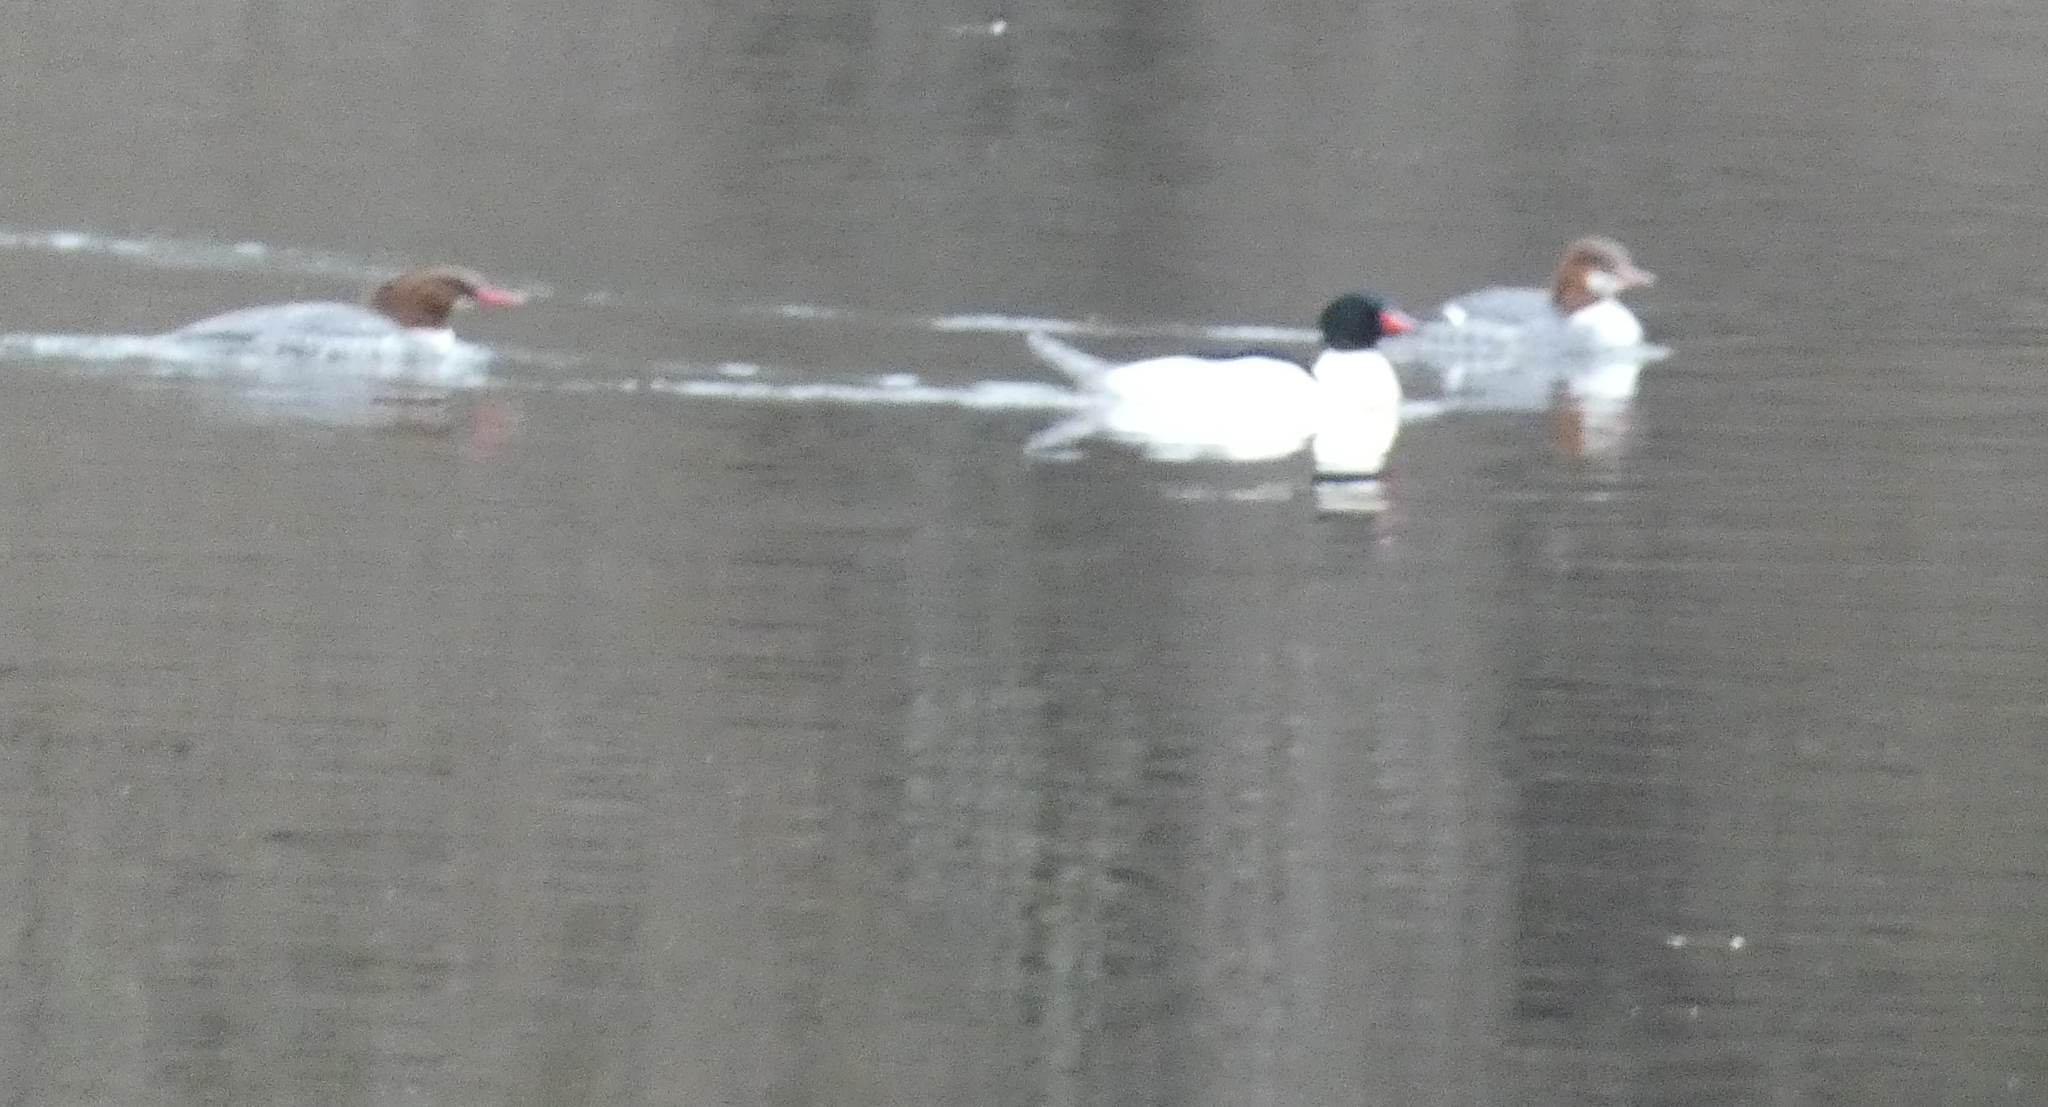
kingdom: Animalia
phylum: Chordata
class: Aves
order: Anseriformes
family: Anatidae
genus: Mergus
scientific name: Mergus merganser
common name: Common merganser
